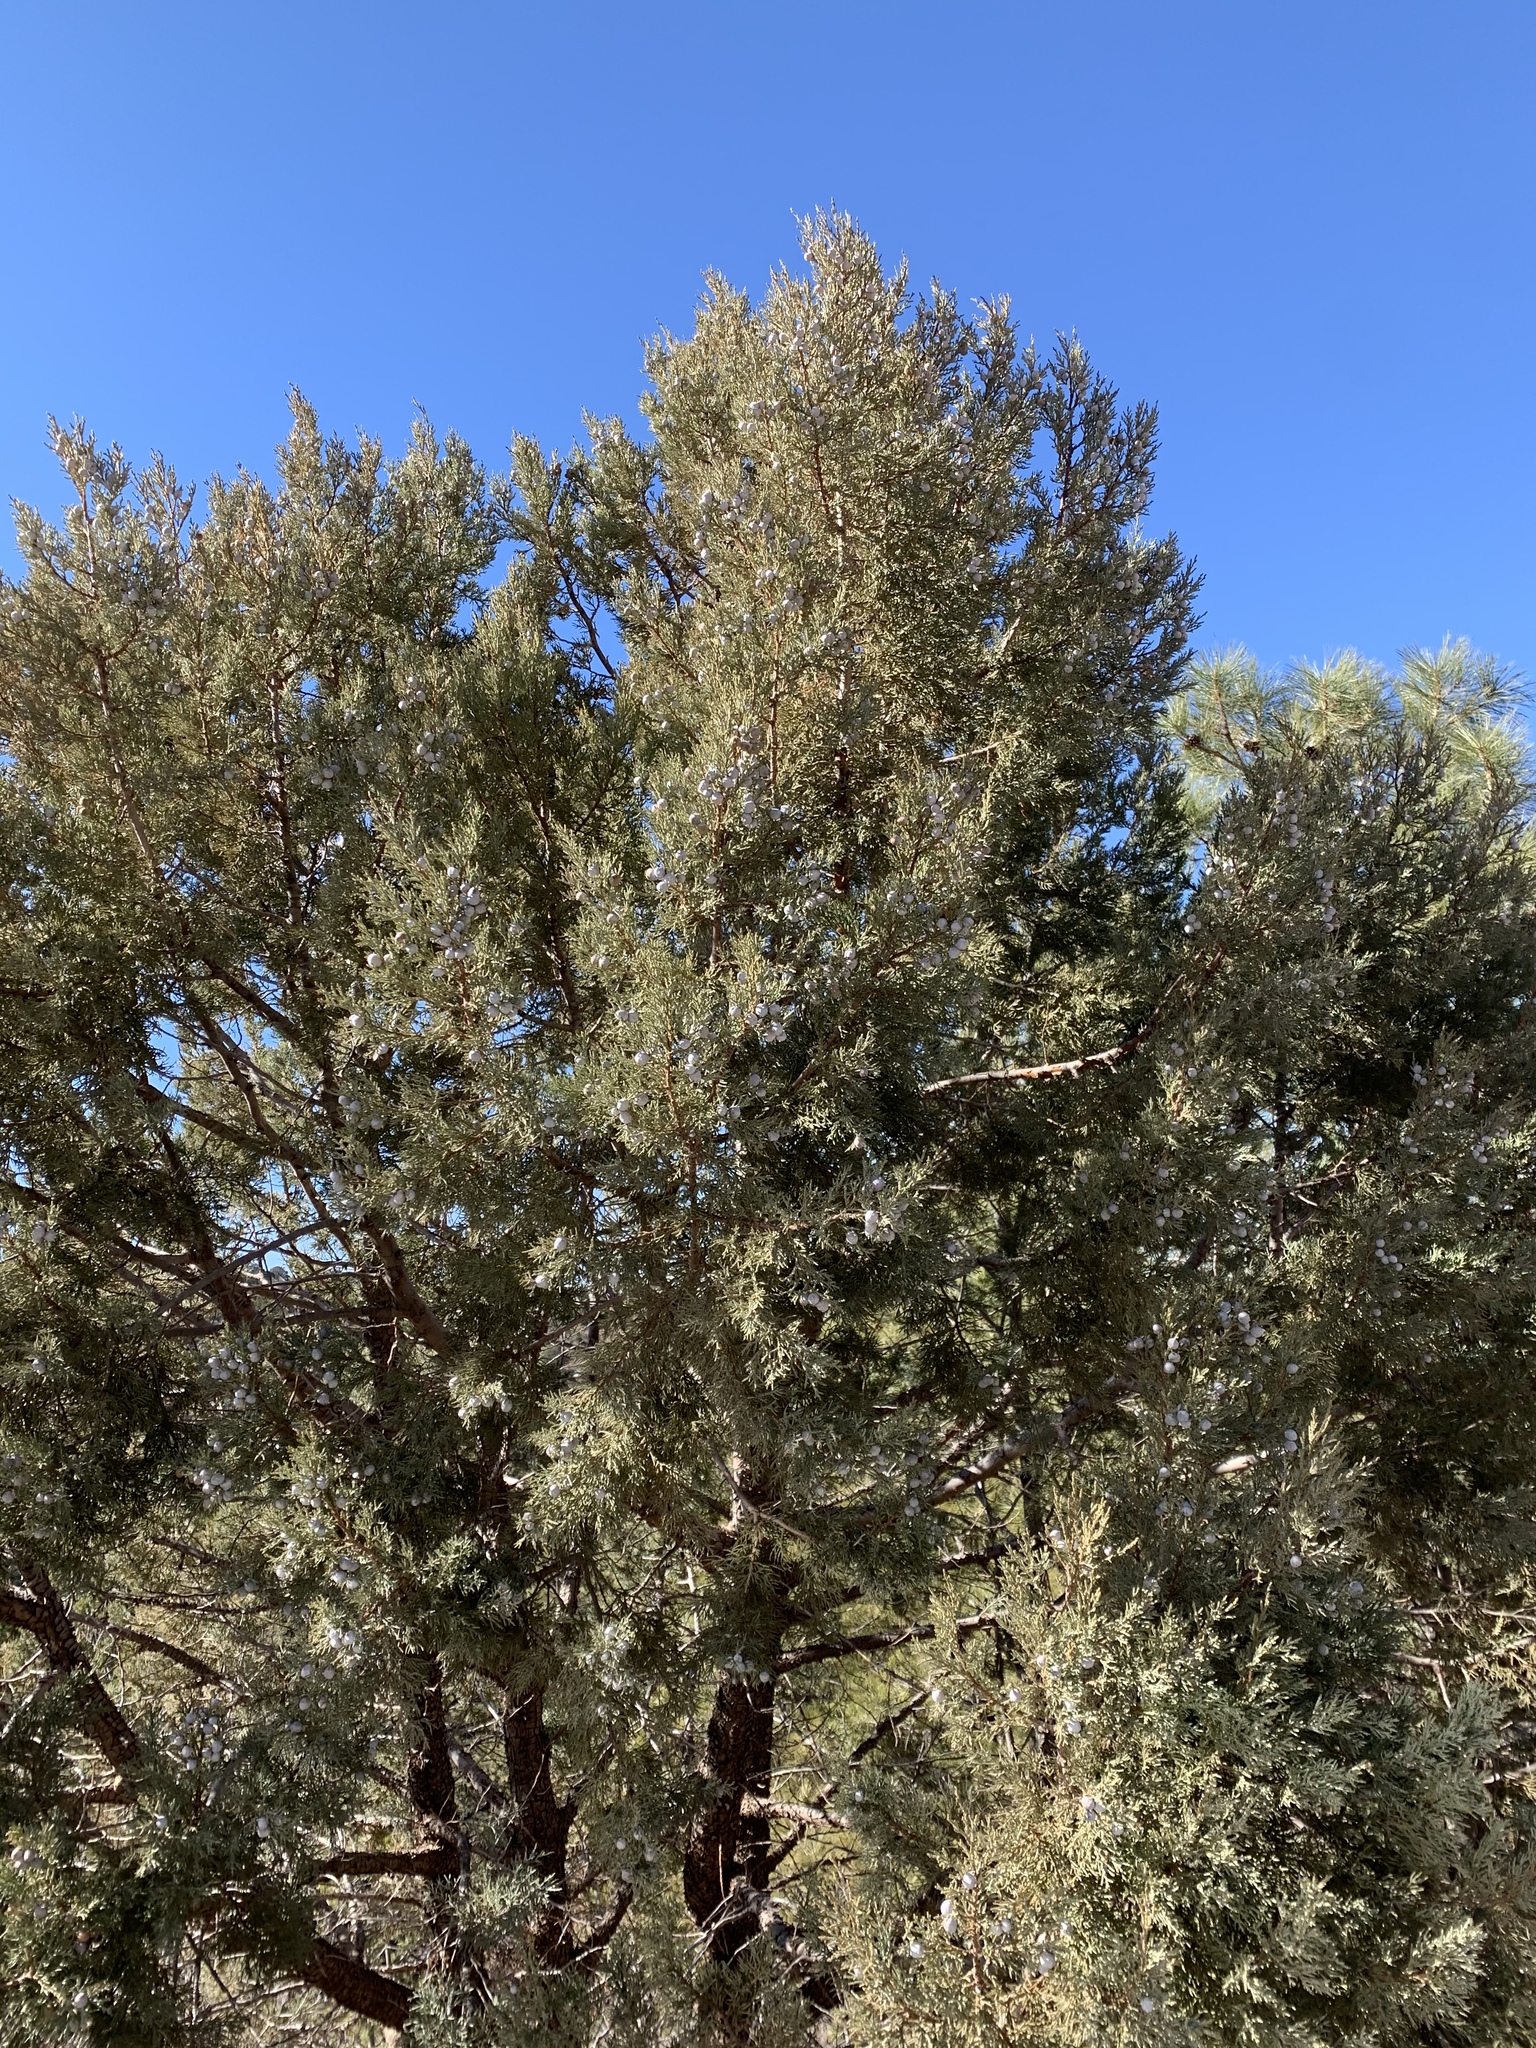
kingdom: Plantae
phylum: Tracheophyta
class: Pinopsida
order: Pinales
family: Cupressaceae
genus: Juniperus
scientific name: Juniperus deppeana
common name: Alligator juniper
